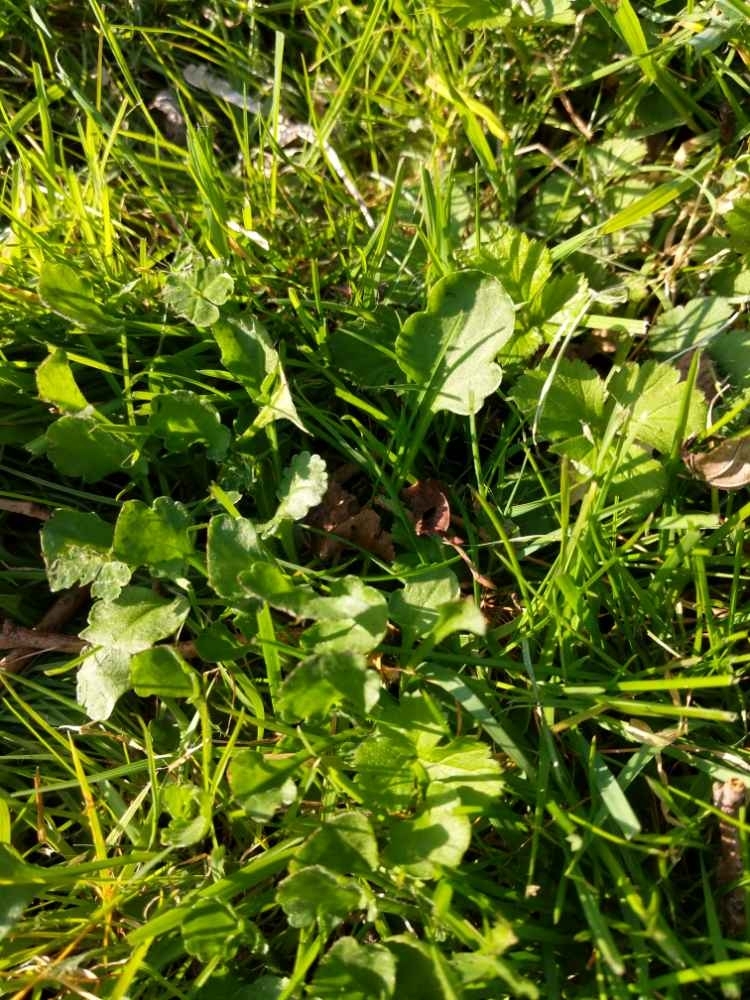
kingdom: Plantae
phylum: Tracheophyta
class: Magnoliopsida
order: Asterales
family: Asteraceae
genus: Leucanthemum
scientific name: Leucanthemum vulgare
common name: Oxeye daisy
